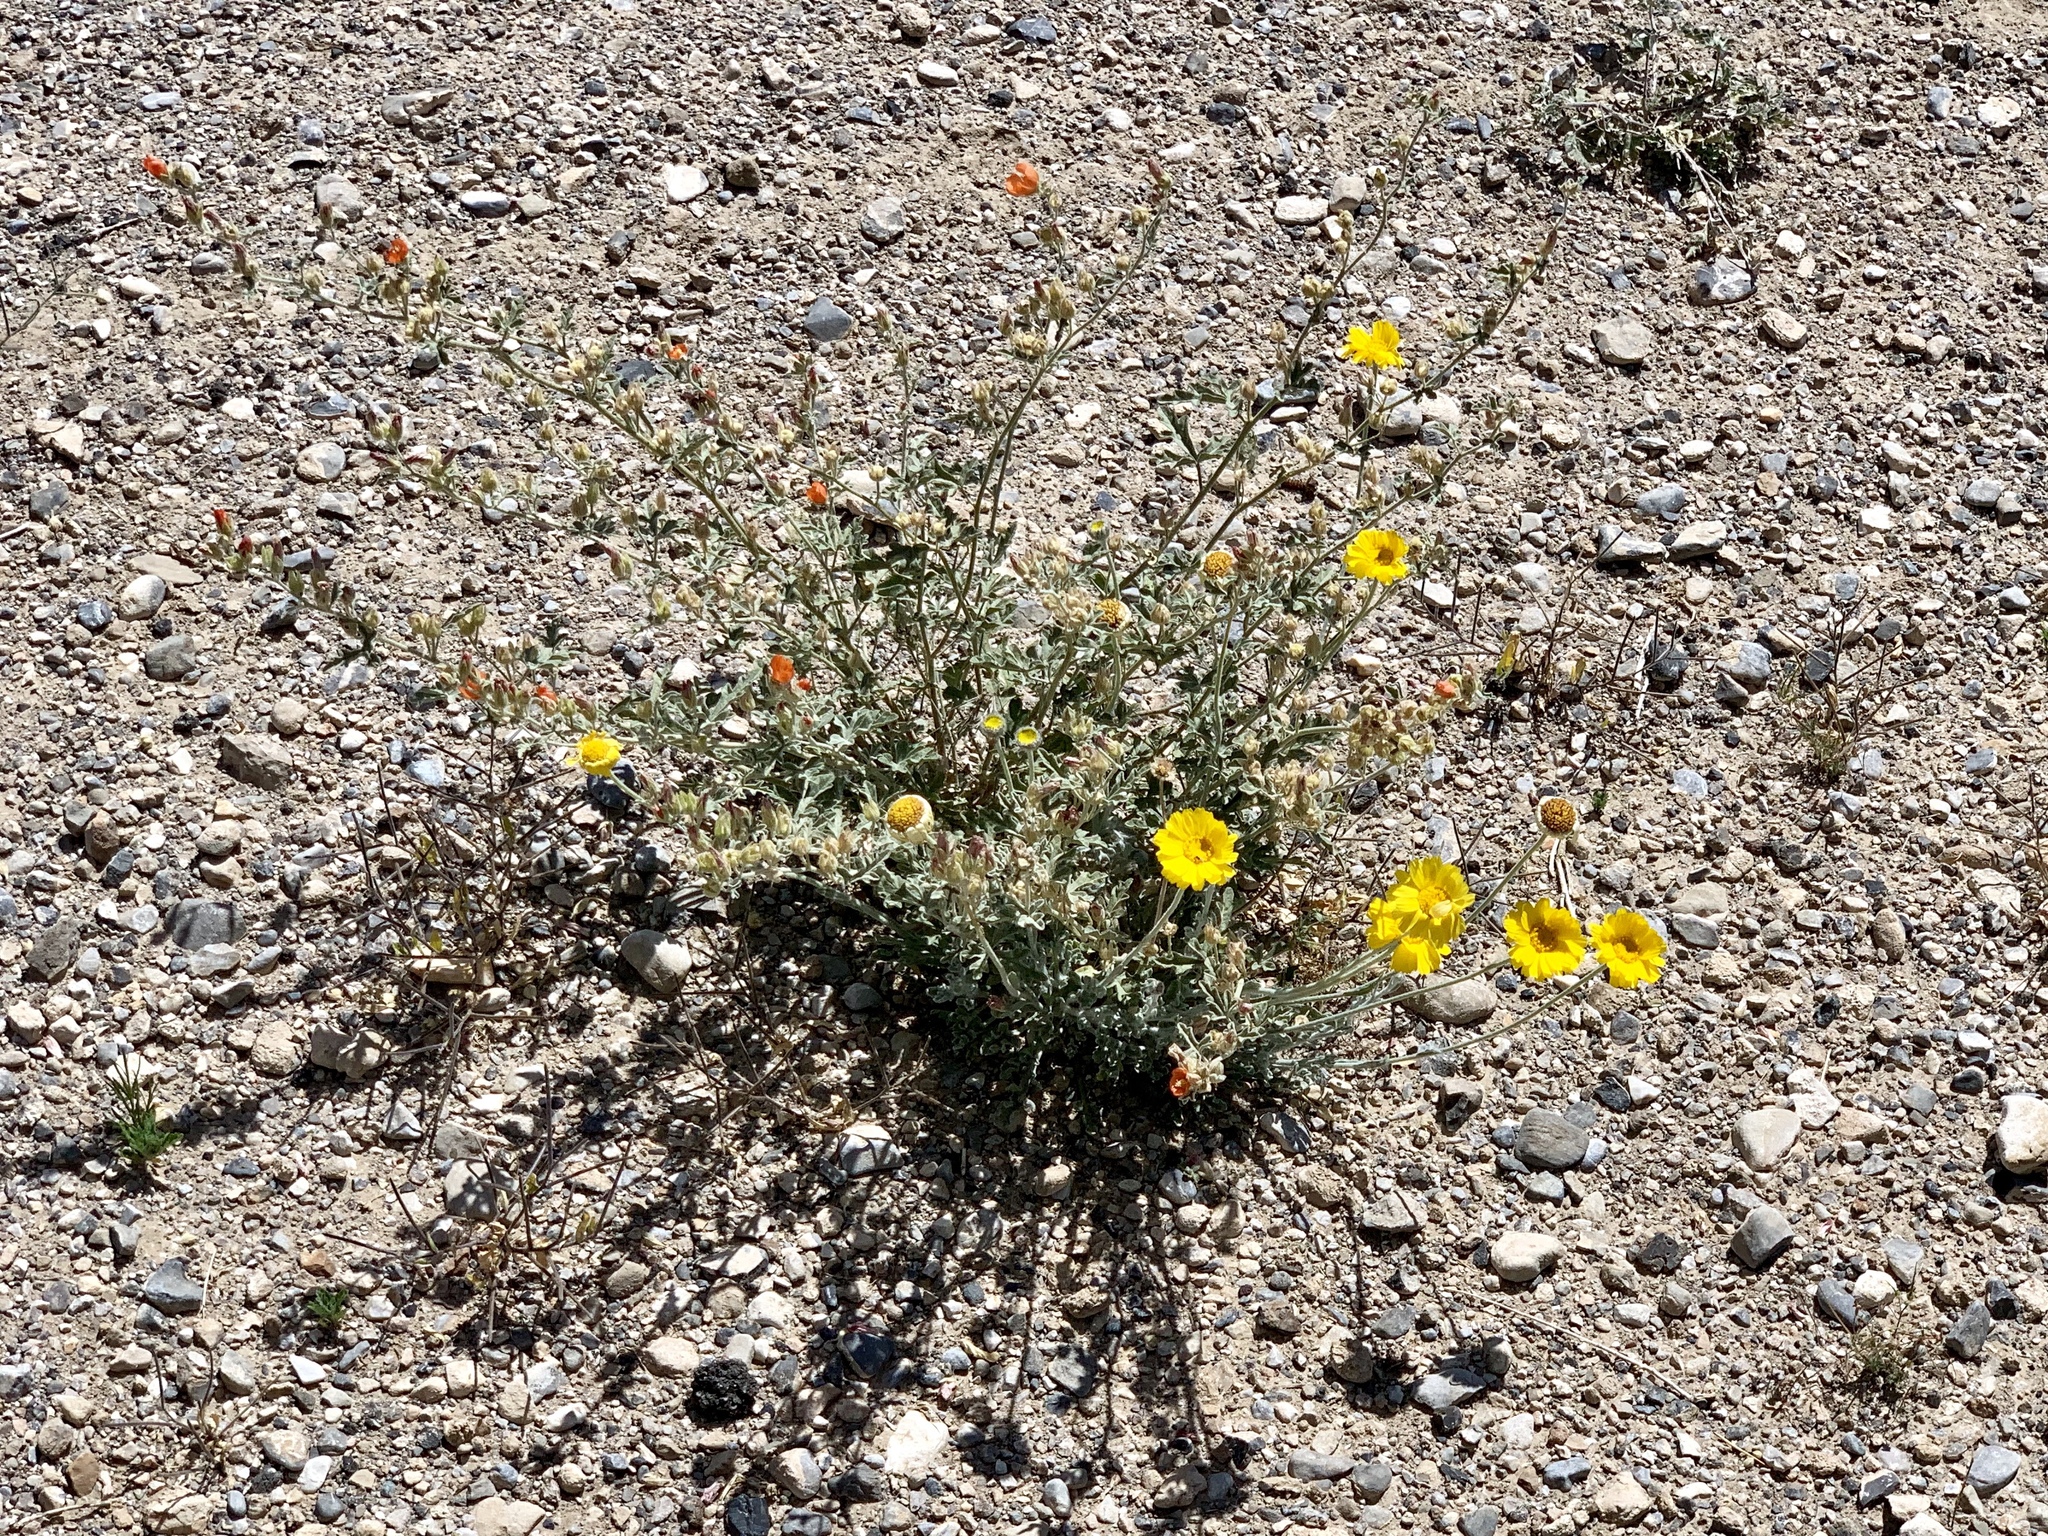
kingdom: Plantae
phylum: Tracheophyta
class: Magnoliopsida
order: Asterales
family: Asteraceae
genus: Baileya
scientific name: Baileya multiradiata
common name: Desert-marigold
